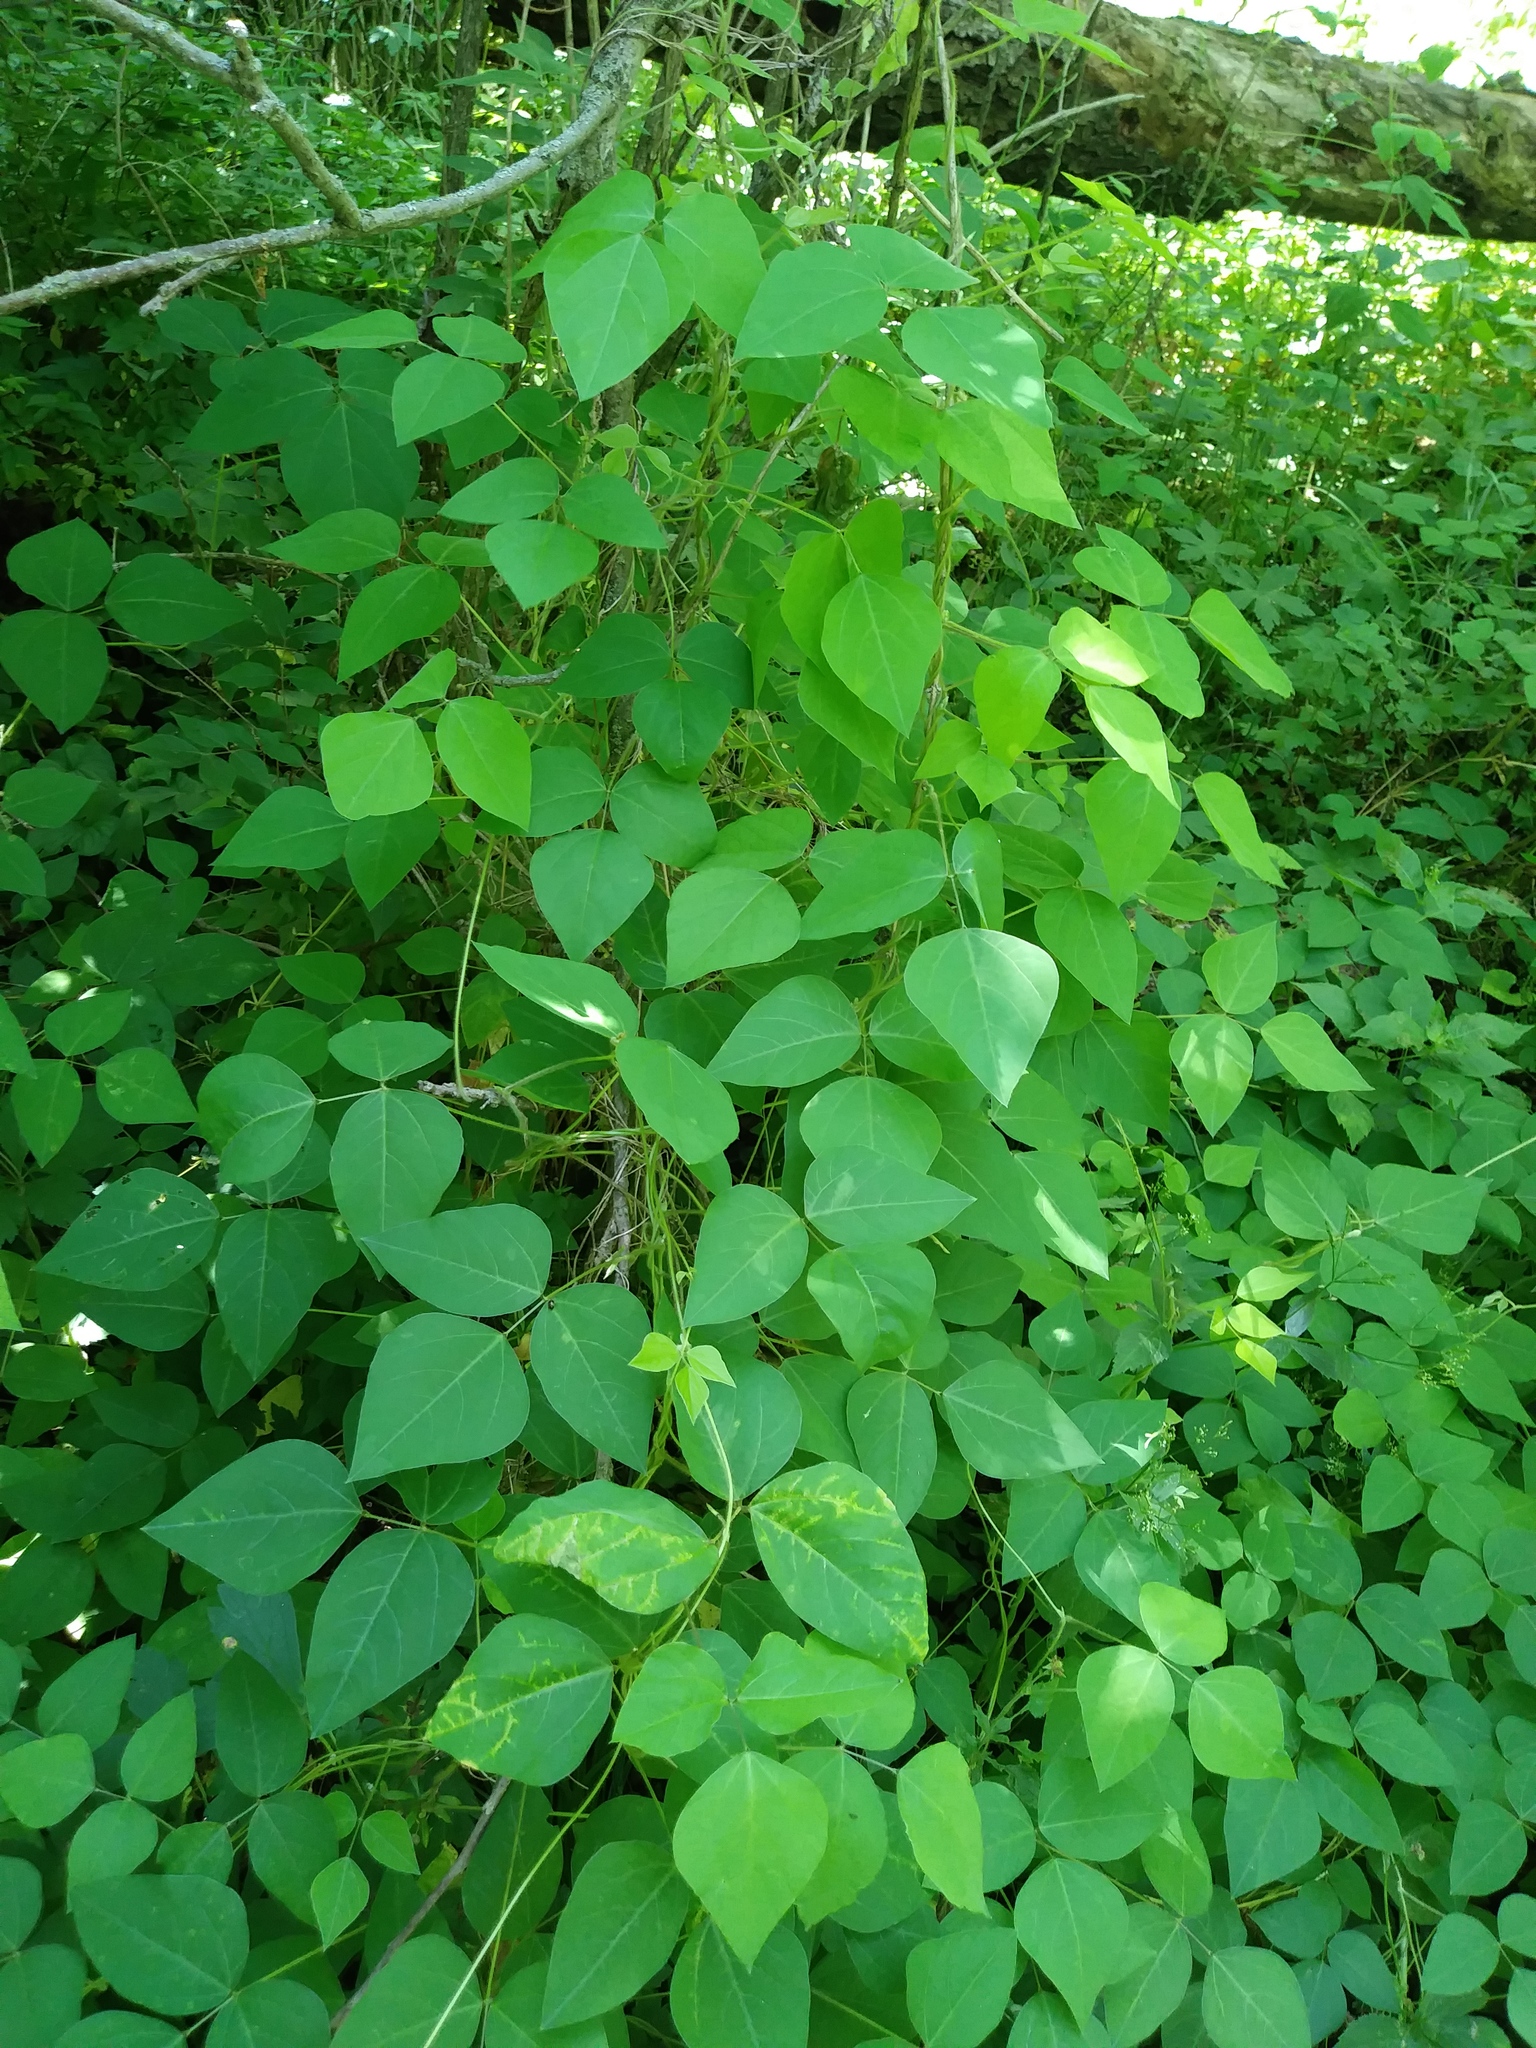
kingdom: Plantae
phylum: Tracheophyta
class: Magnoliopsida
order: Fabales
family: Fabaceae
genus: Amphicarpaea
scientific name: Amphicarpaea bracteata
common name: American hog peanut
